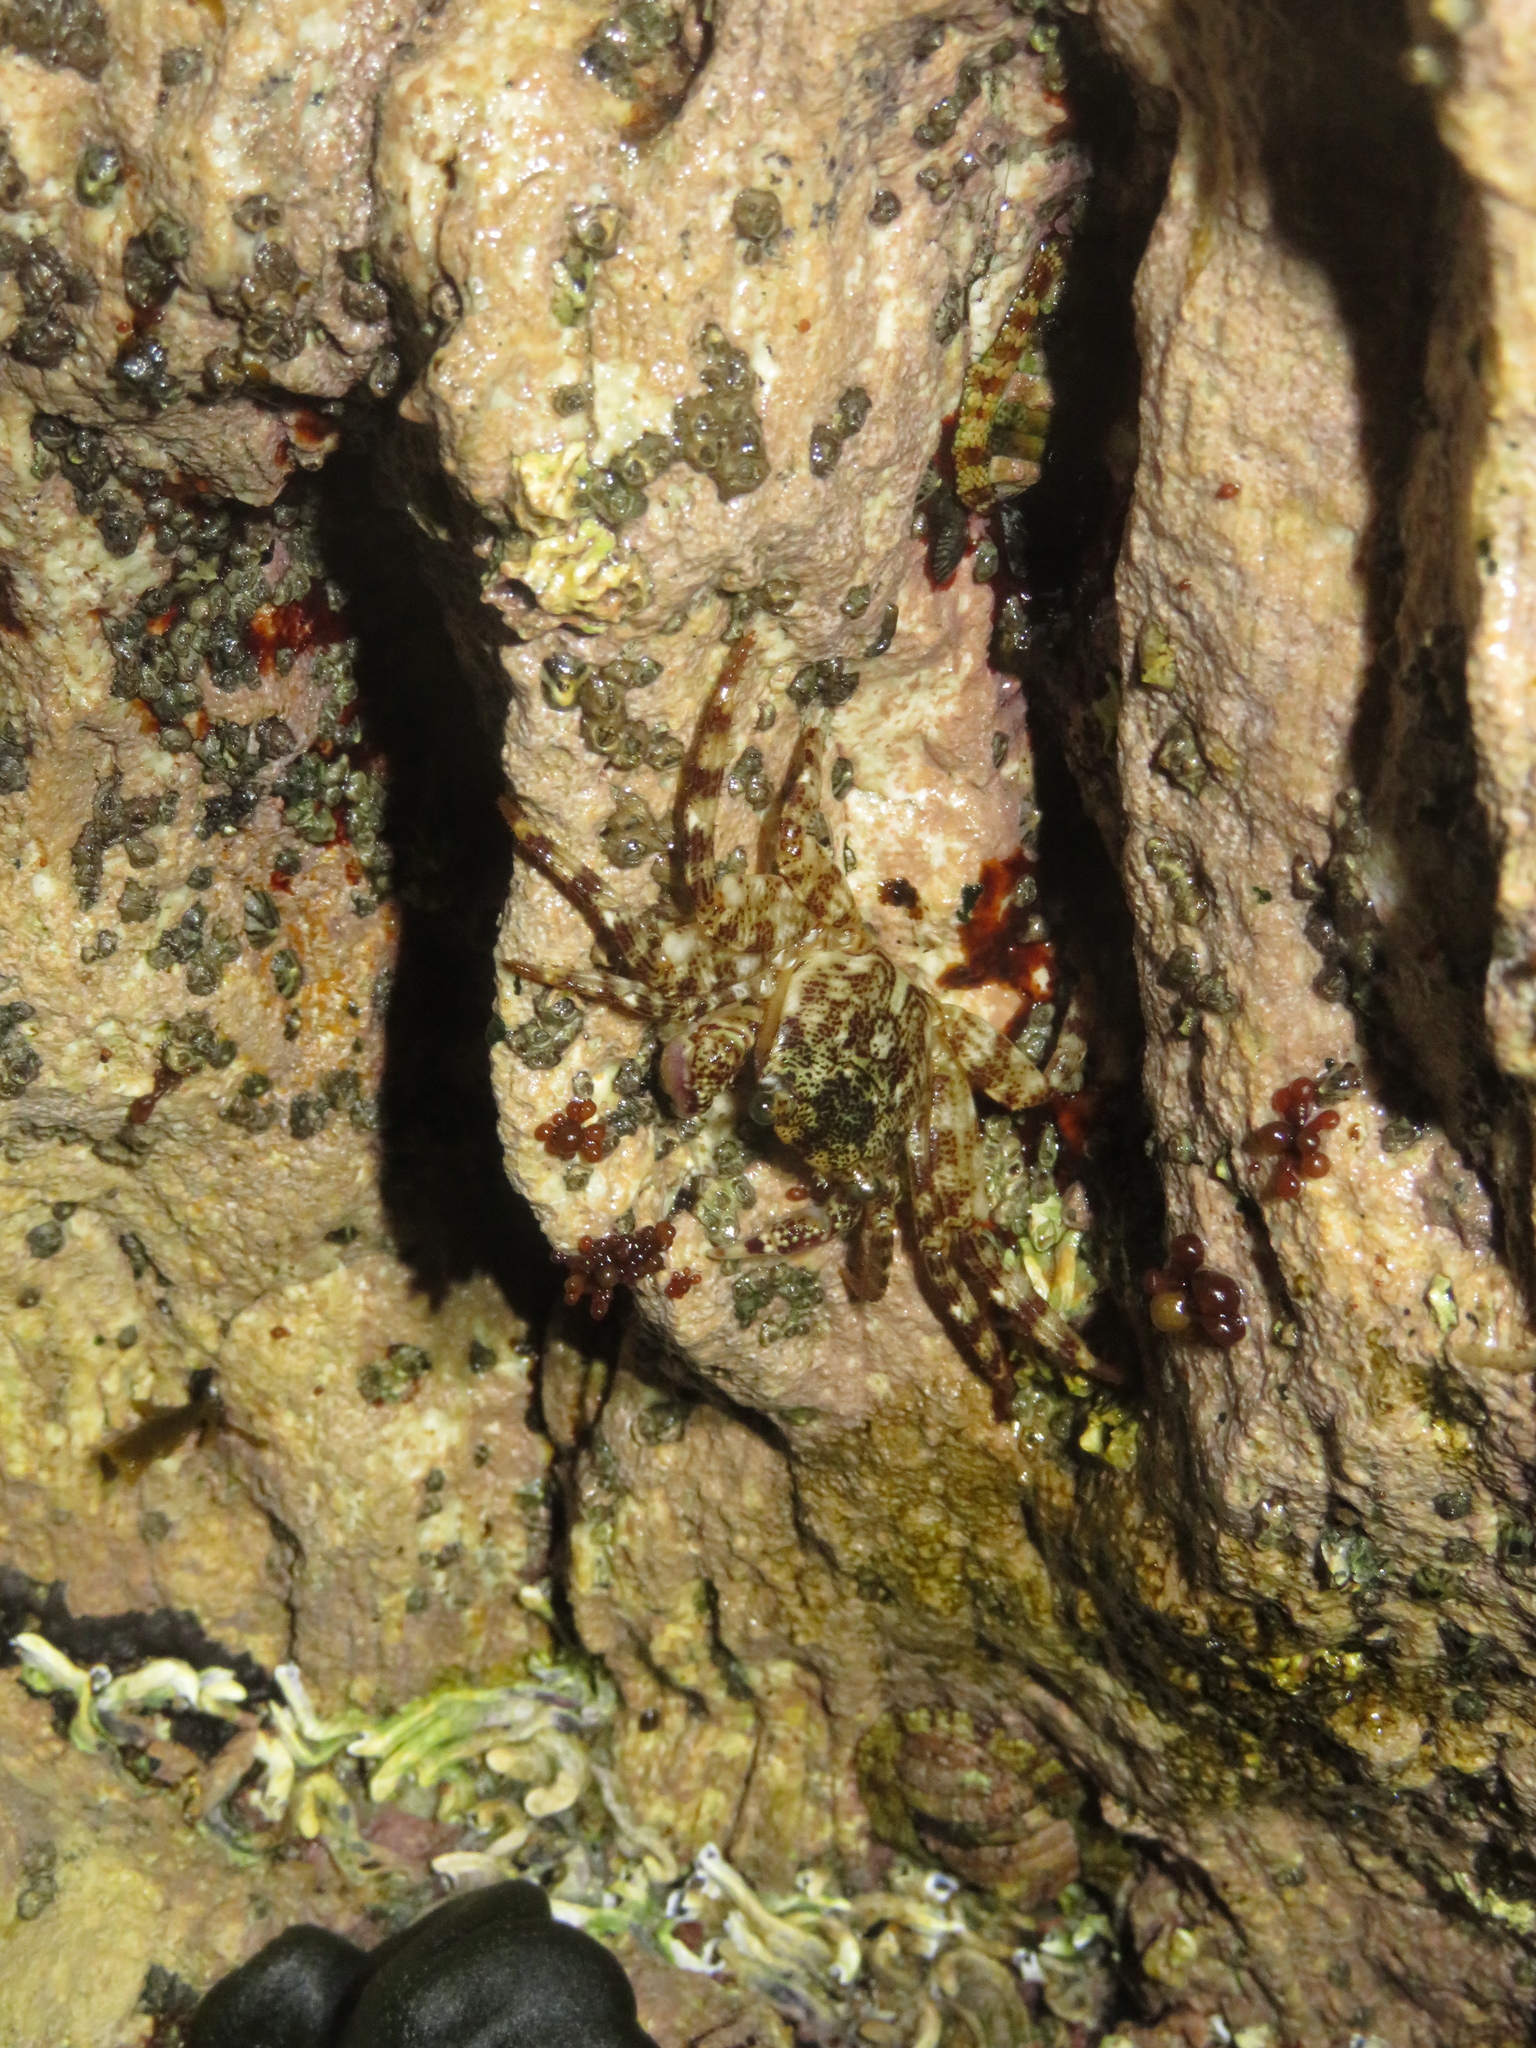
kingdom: Animalia
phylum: Arthropoda
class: Malacostraca
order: Decapoda
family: Grapsidae
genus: Leptograpsus
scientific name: Leptograpsus variegatus
